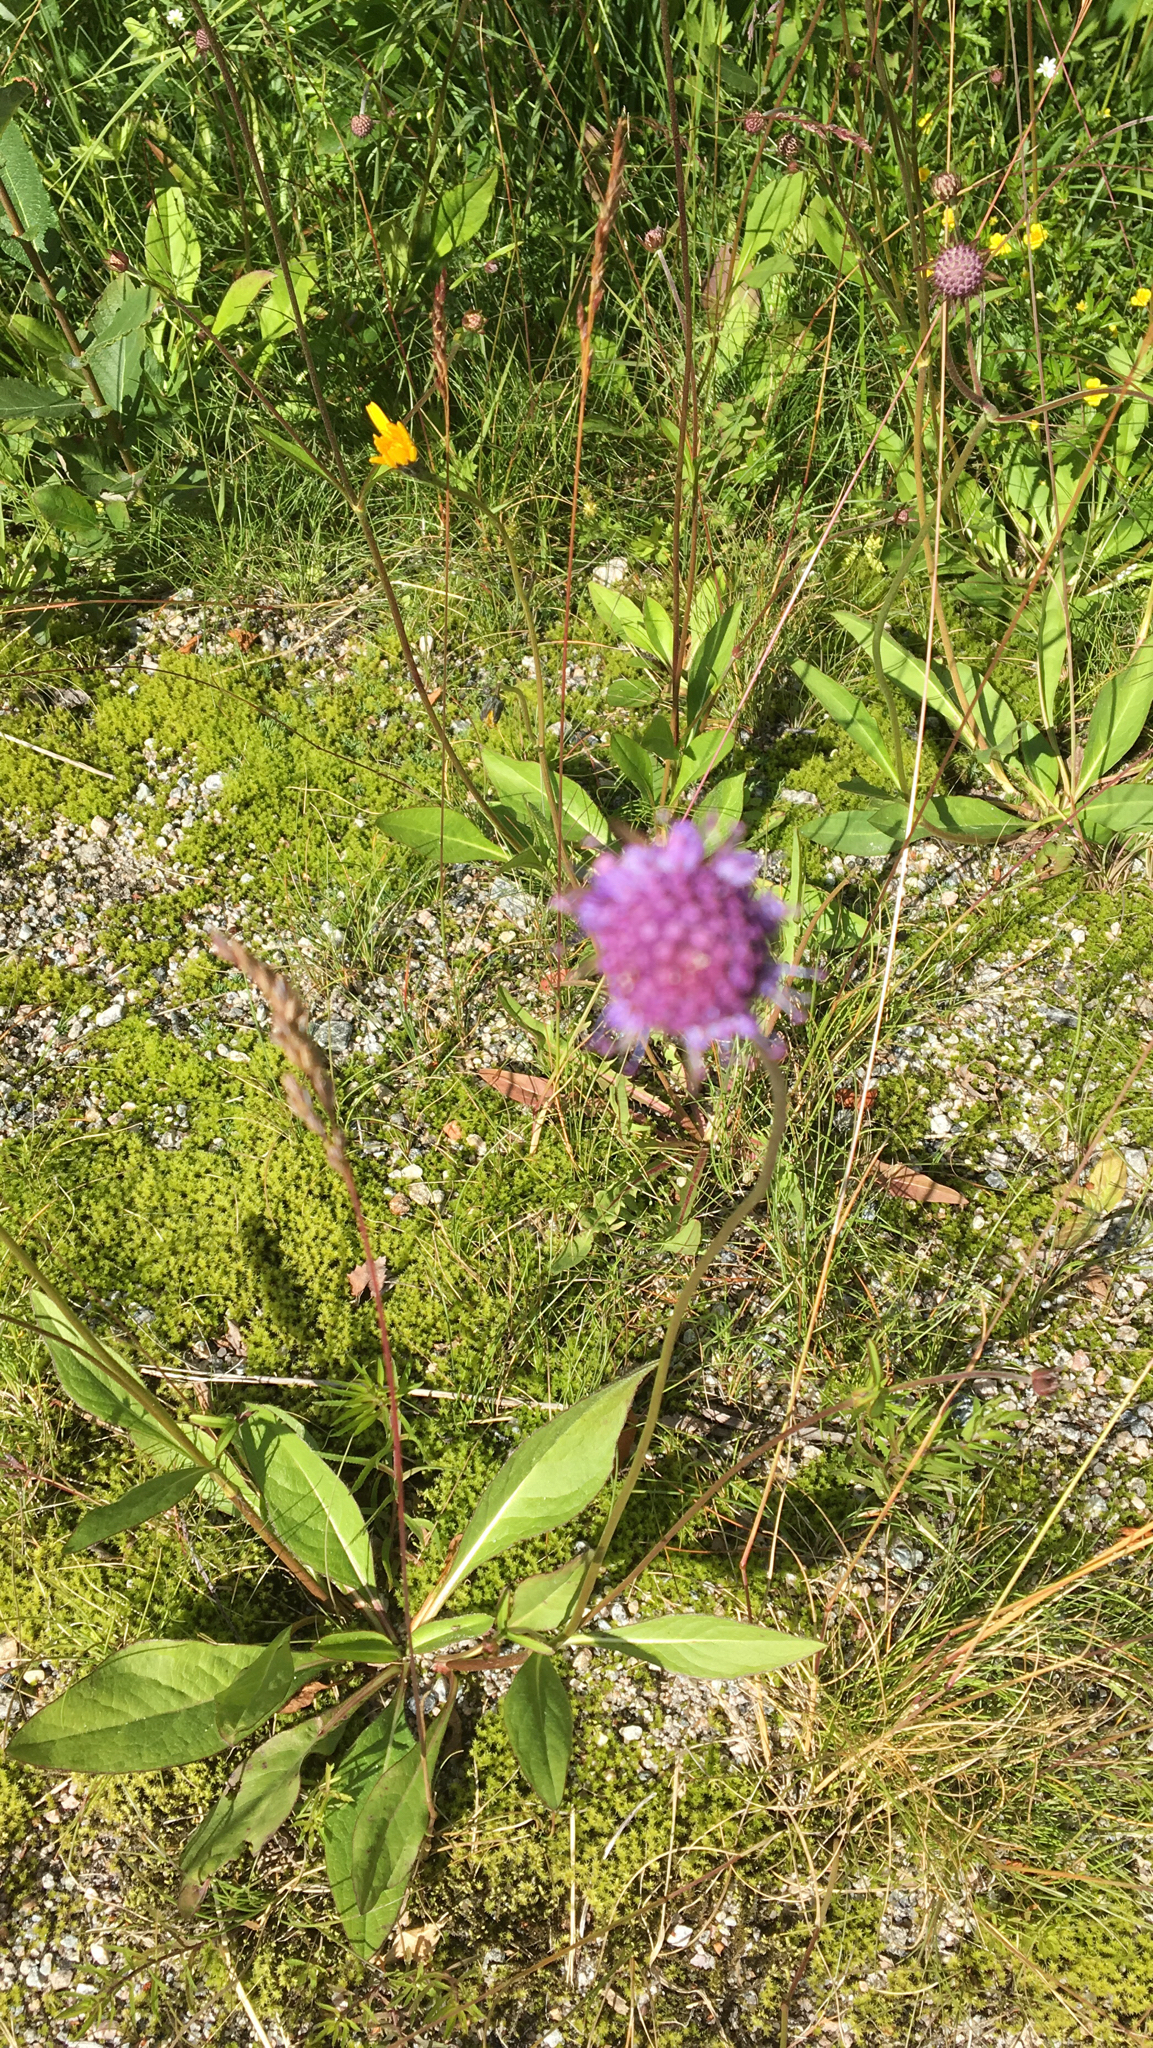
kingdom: Plantae
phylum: Tracheophyta
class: Magnoliopsida
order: Dipsacales
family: Caprifoliaceae
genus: Succisa
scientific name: Succisa pratensis
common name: Devil's-bit
